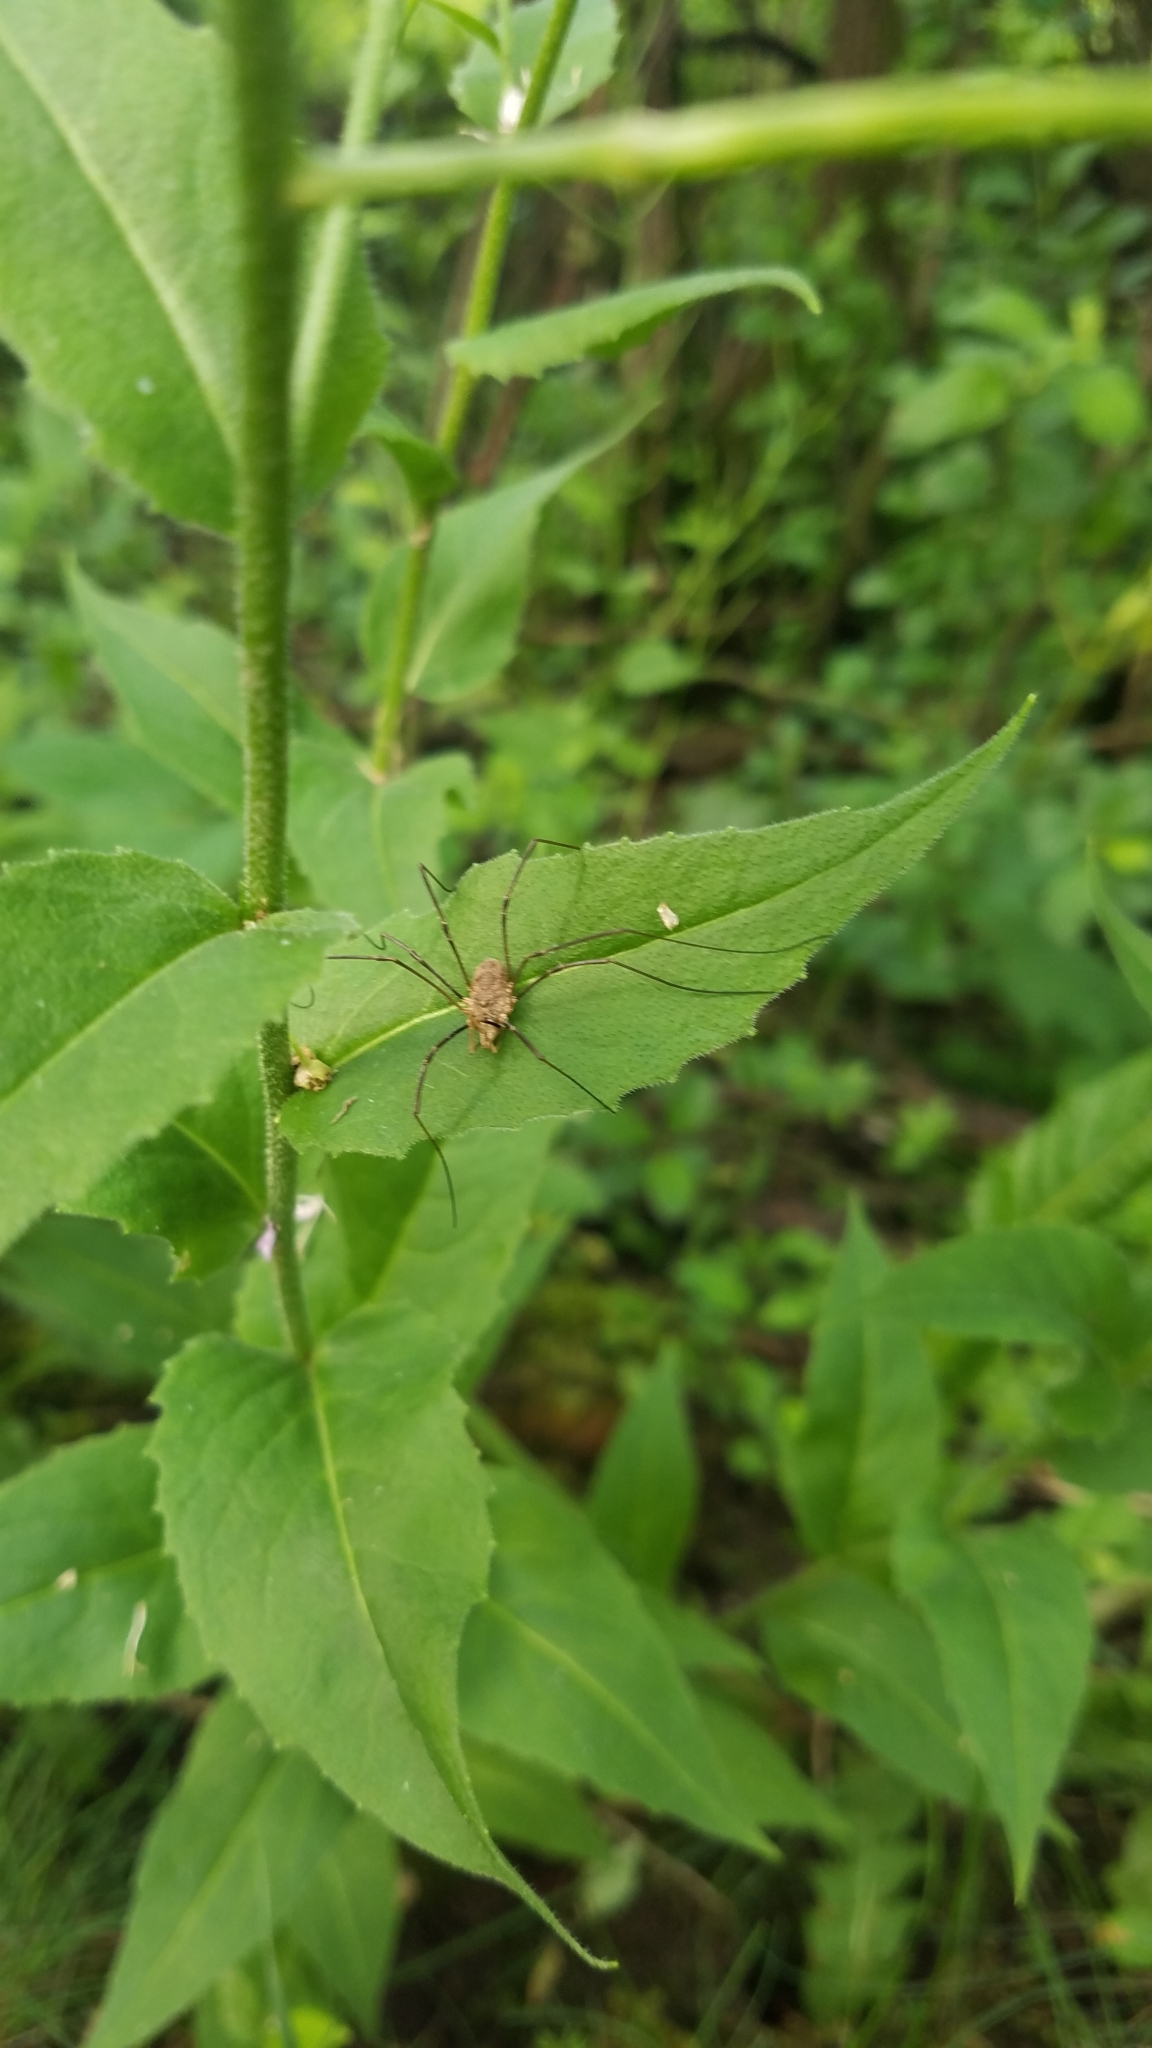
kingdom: Animalia
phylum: Arthropoda
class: Arachnida
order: Opiliones
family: Phalangiidae
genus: Phalangium
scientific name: Phalangium opilio
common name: Daddy longleg
